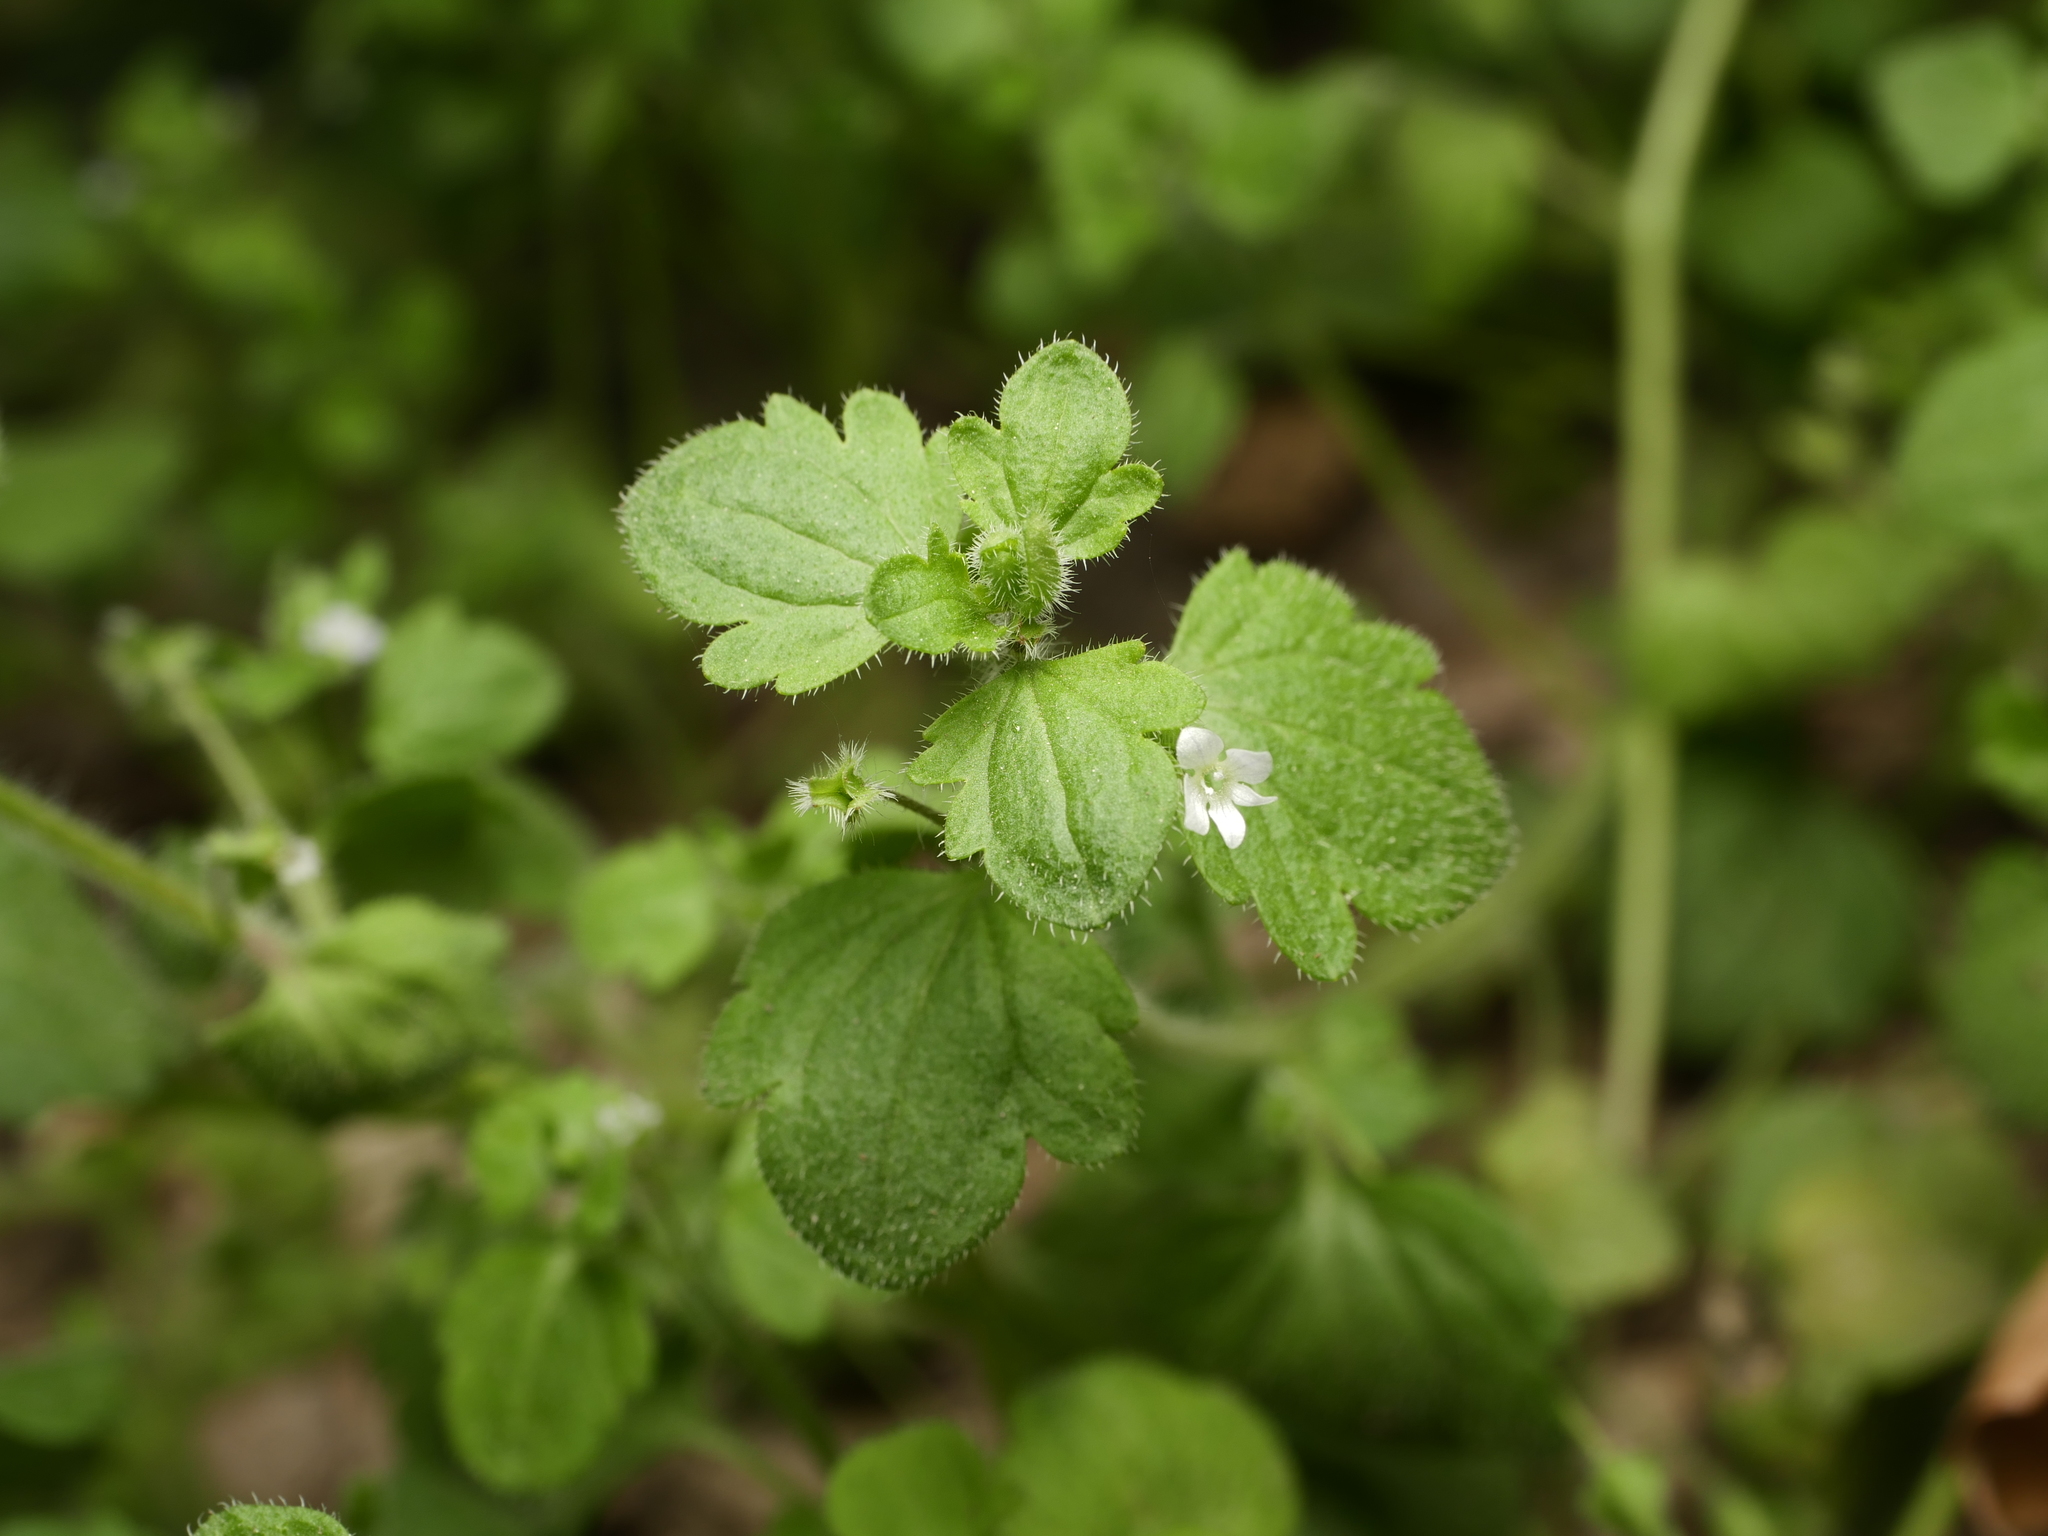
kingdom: Plantae
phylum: Tracheophyta
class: Magnoliopsida
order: Lamiales
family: Plantaginaceae
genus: Veronica
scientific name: Veronica sublobata
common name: False ivy-leaved speedwell
